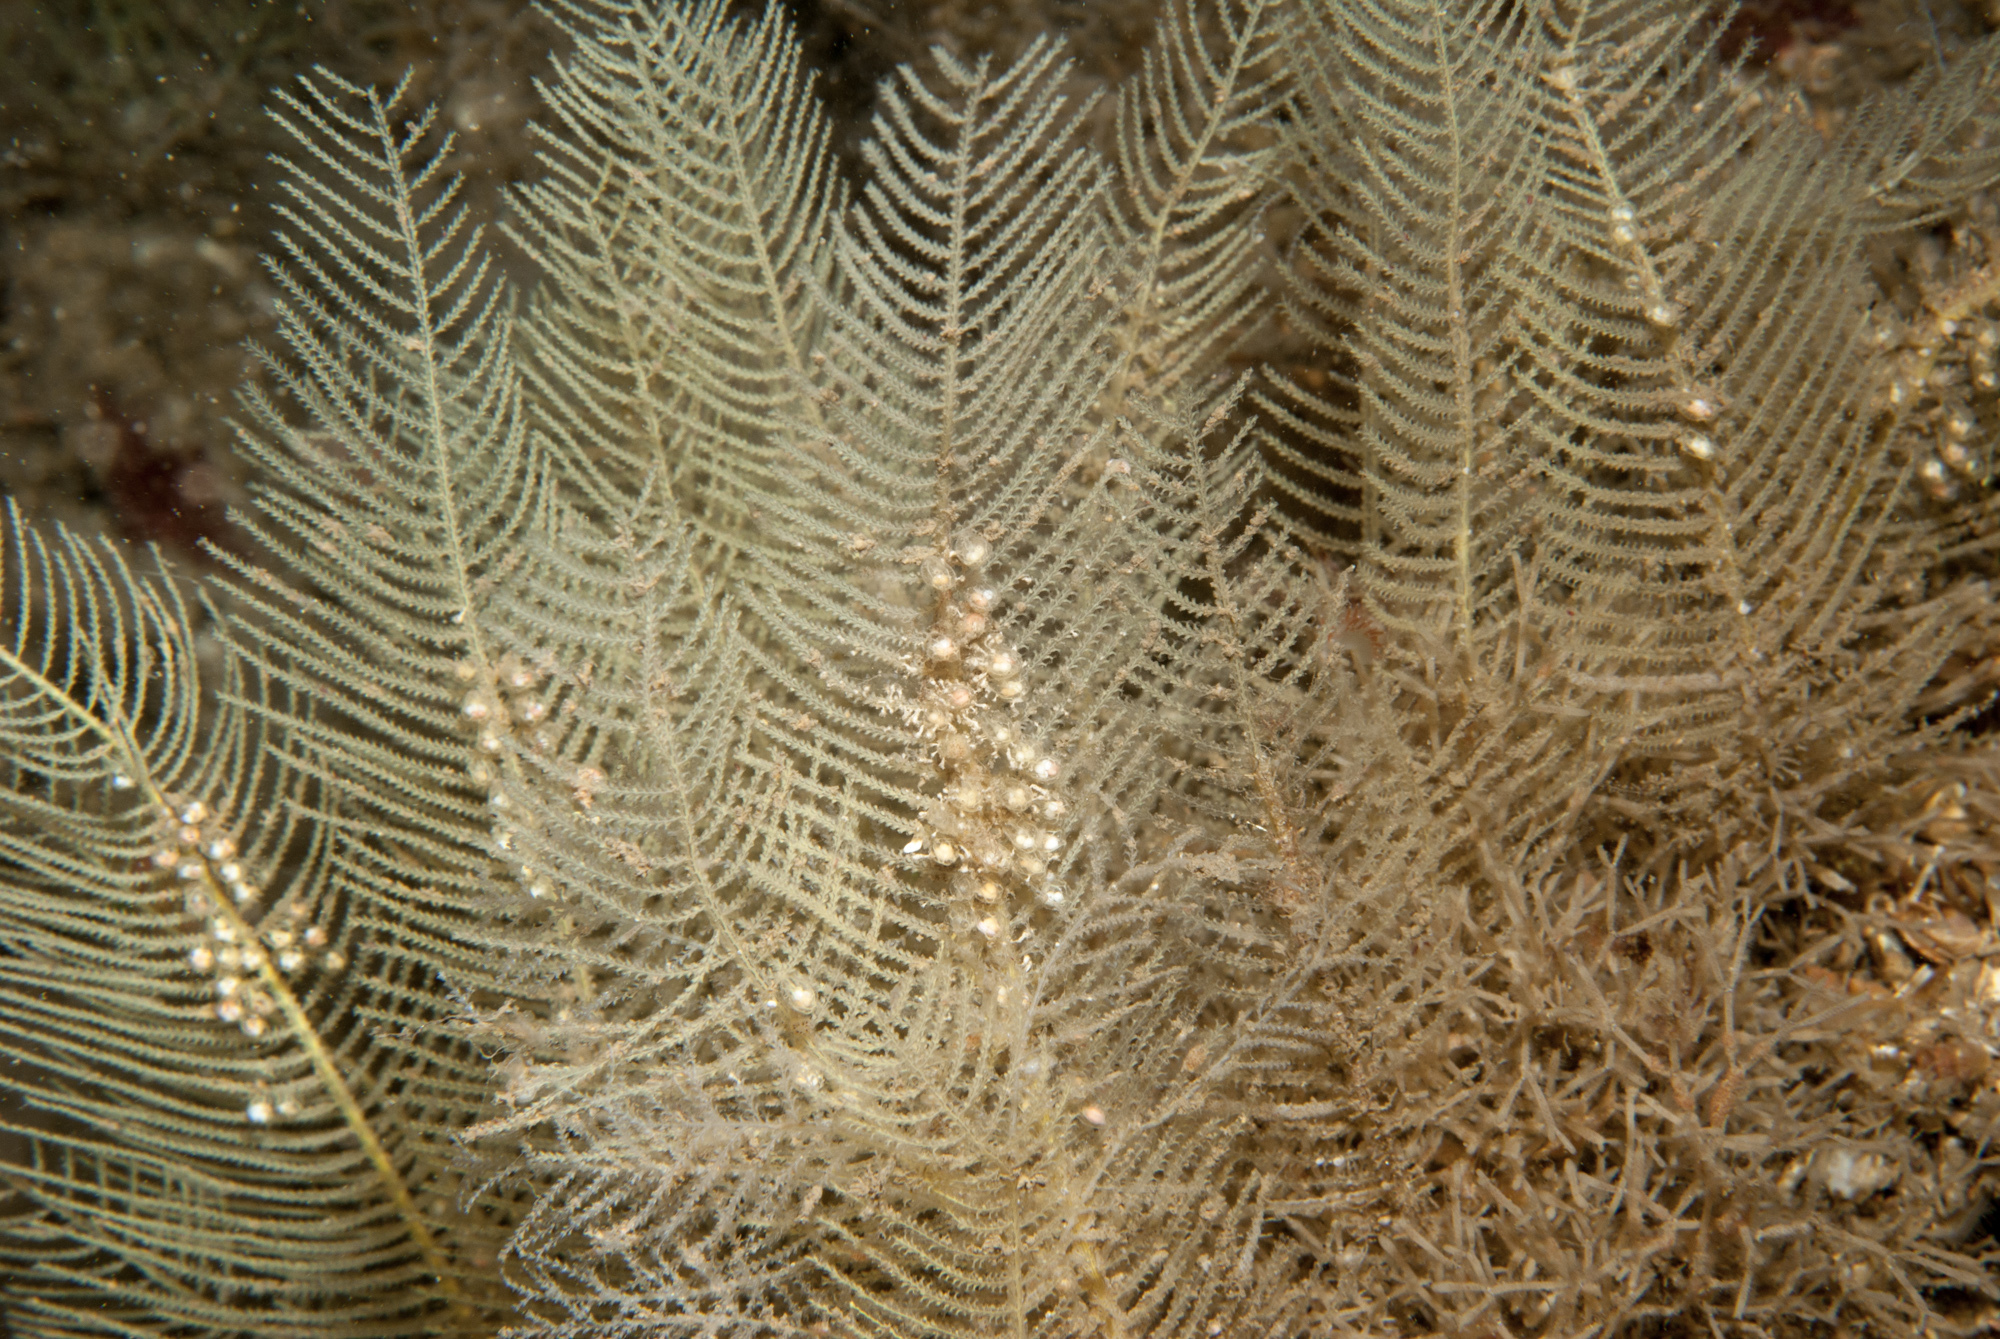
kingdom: Animalia
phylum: Cnidaria
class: Hydrozoa
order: Leptothecata
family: Sertulariidae
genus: Diphasia
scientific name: Diphasia nigra
